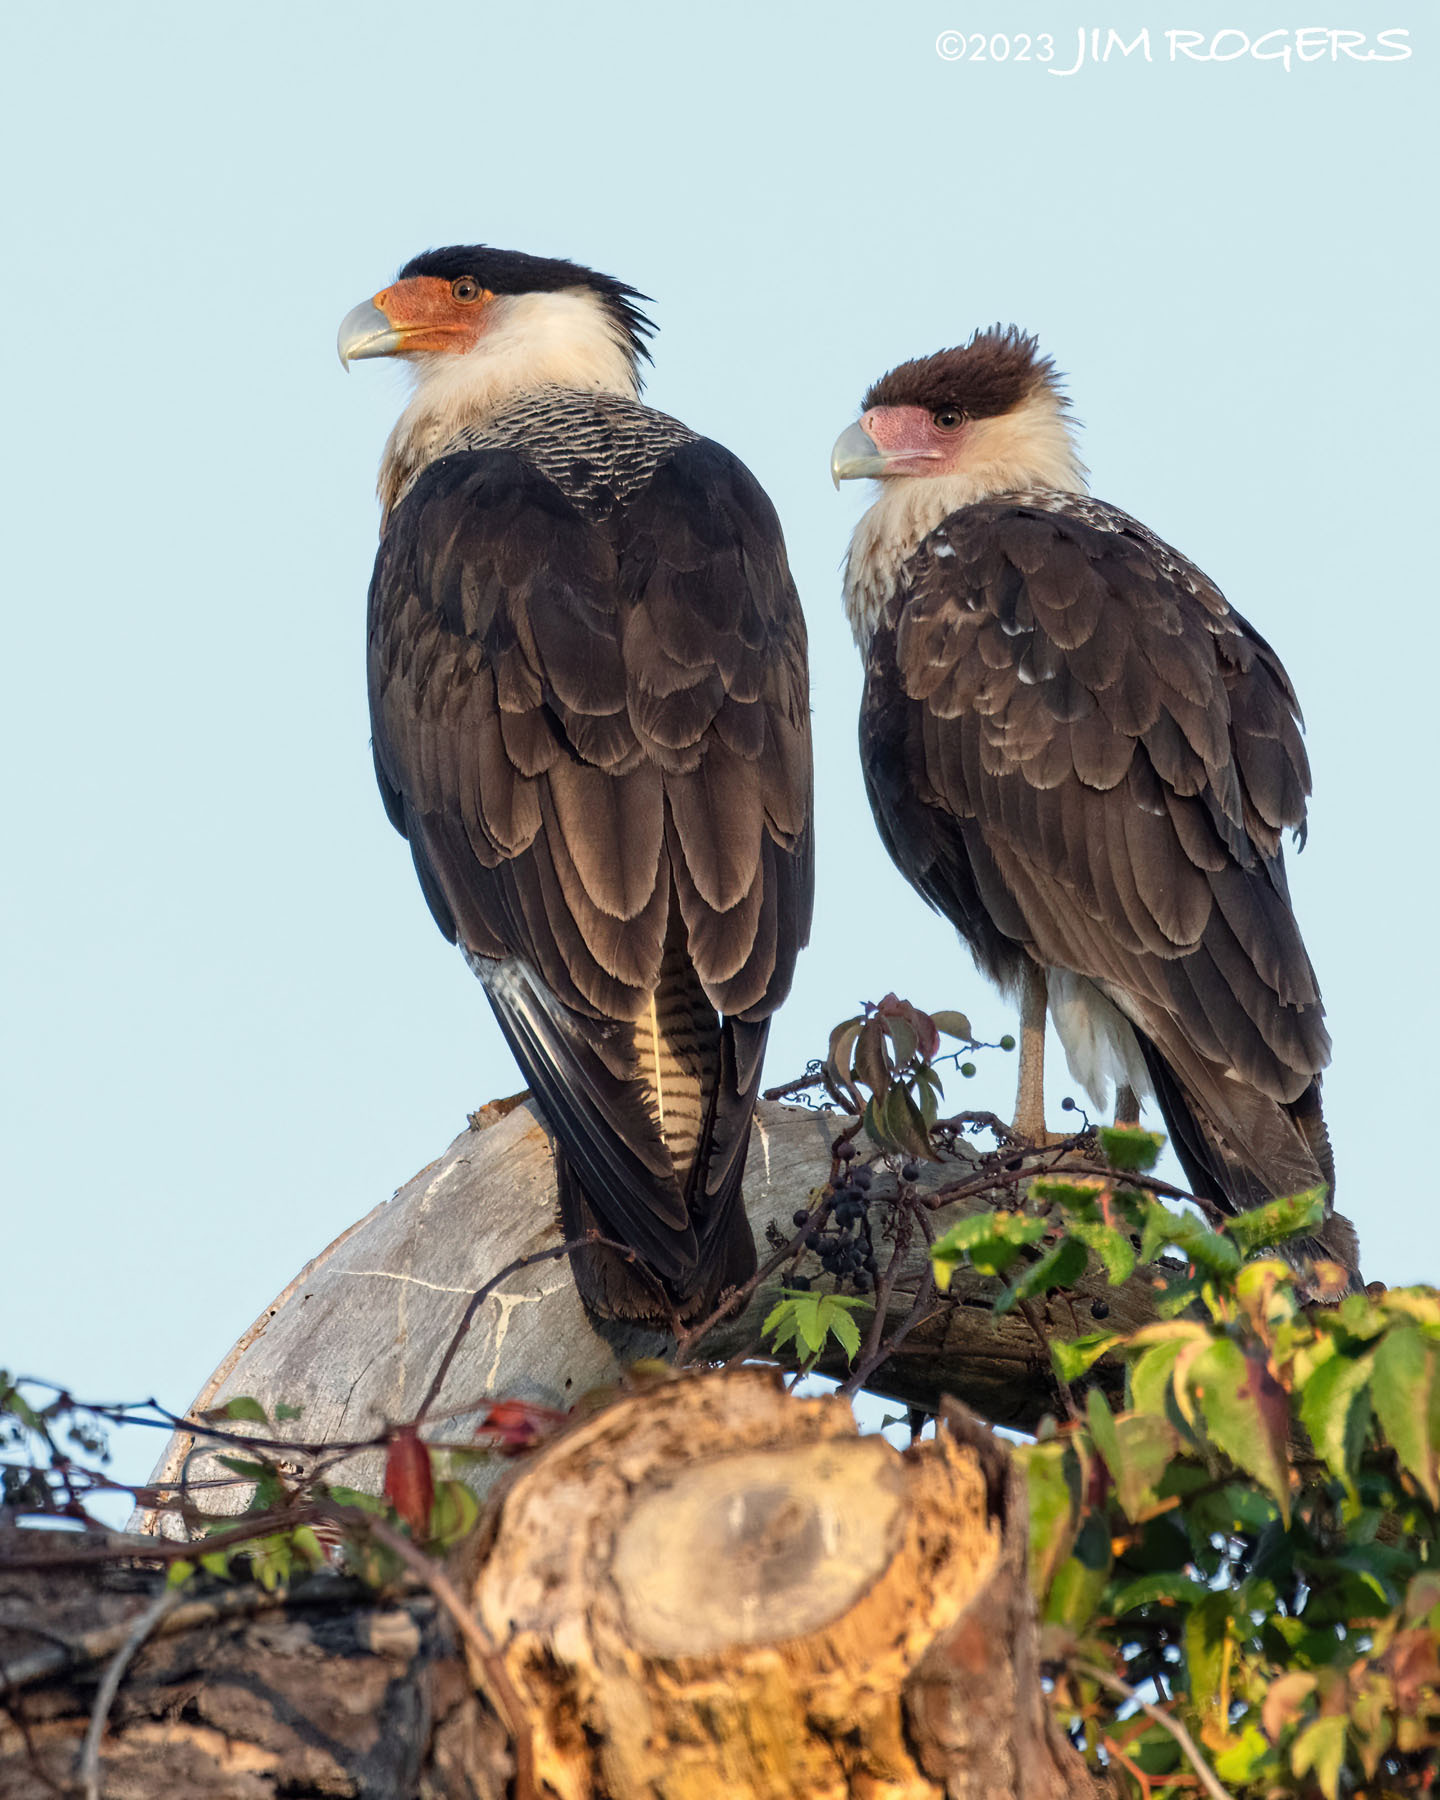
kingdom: Animalia
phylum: Chordata
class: Aves
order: Falconiformes
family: Falconidae
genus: Caracara
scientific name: Caracara plancus
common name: Southern caracara
